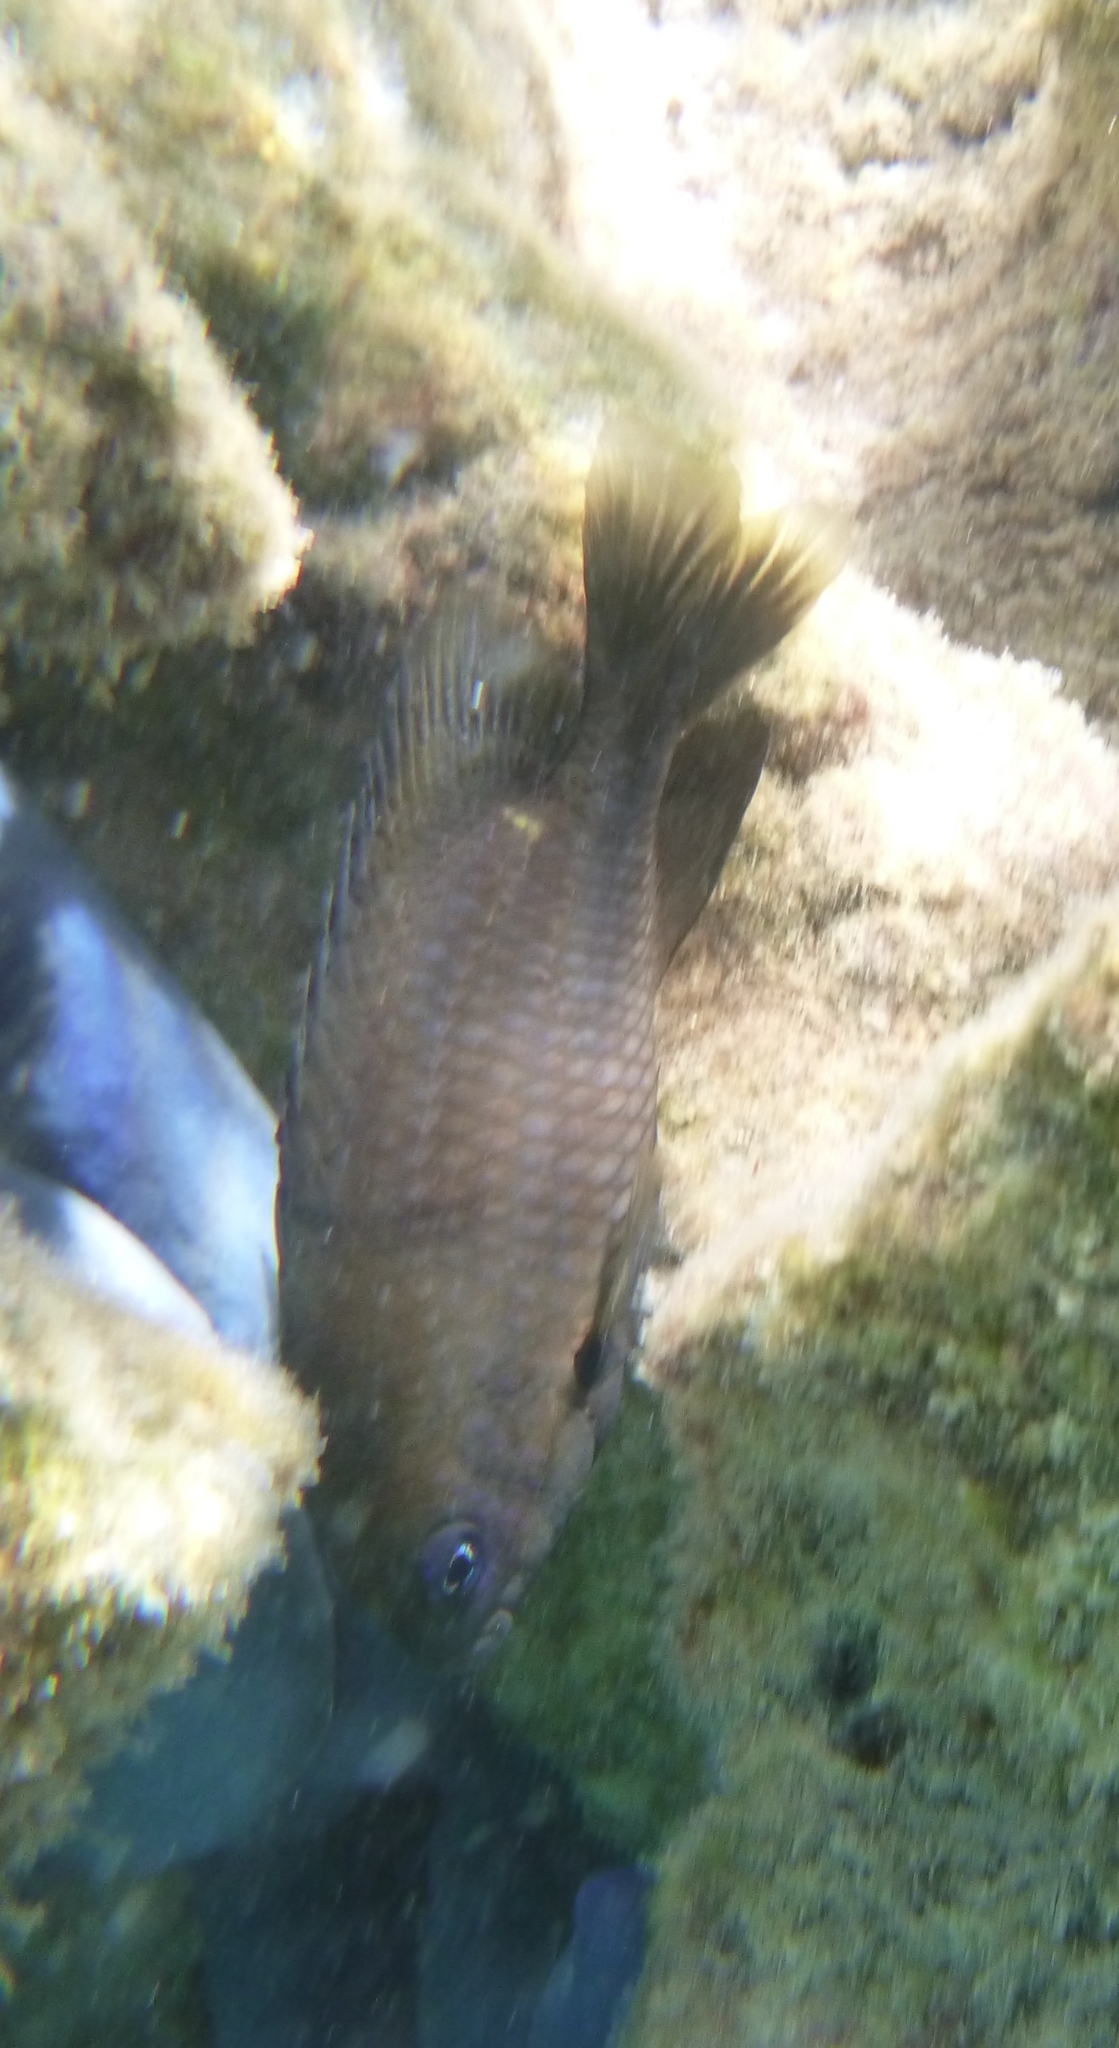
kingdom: Animalia
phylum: Chordata
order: Perciformes
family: Pomacentridae
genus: Stegastes
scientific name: Stegastes nigricans
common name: Dusky gregory
